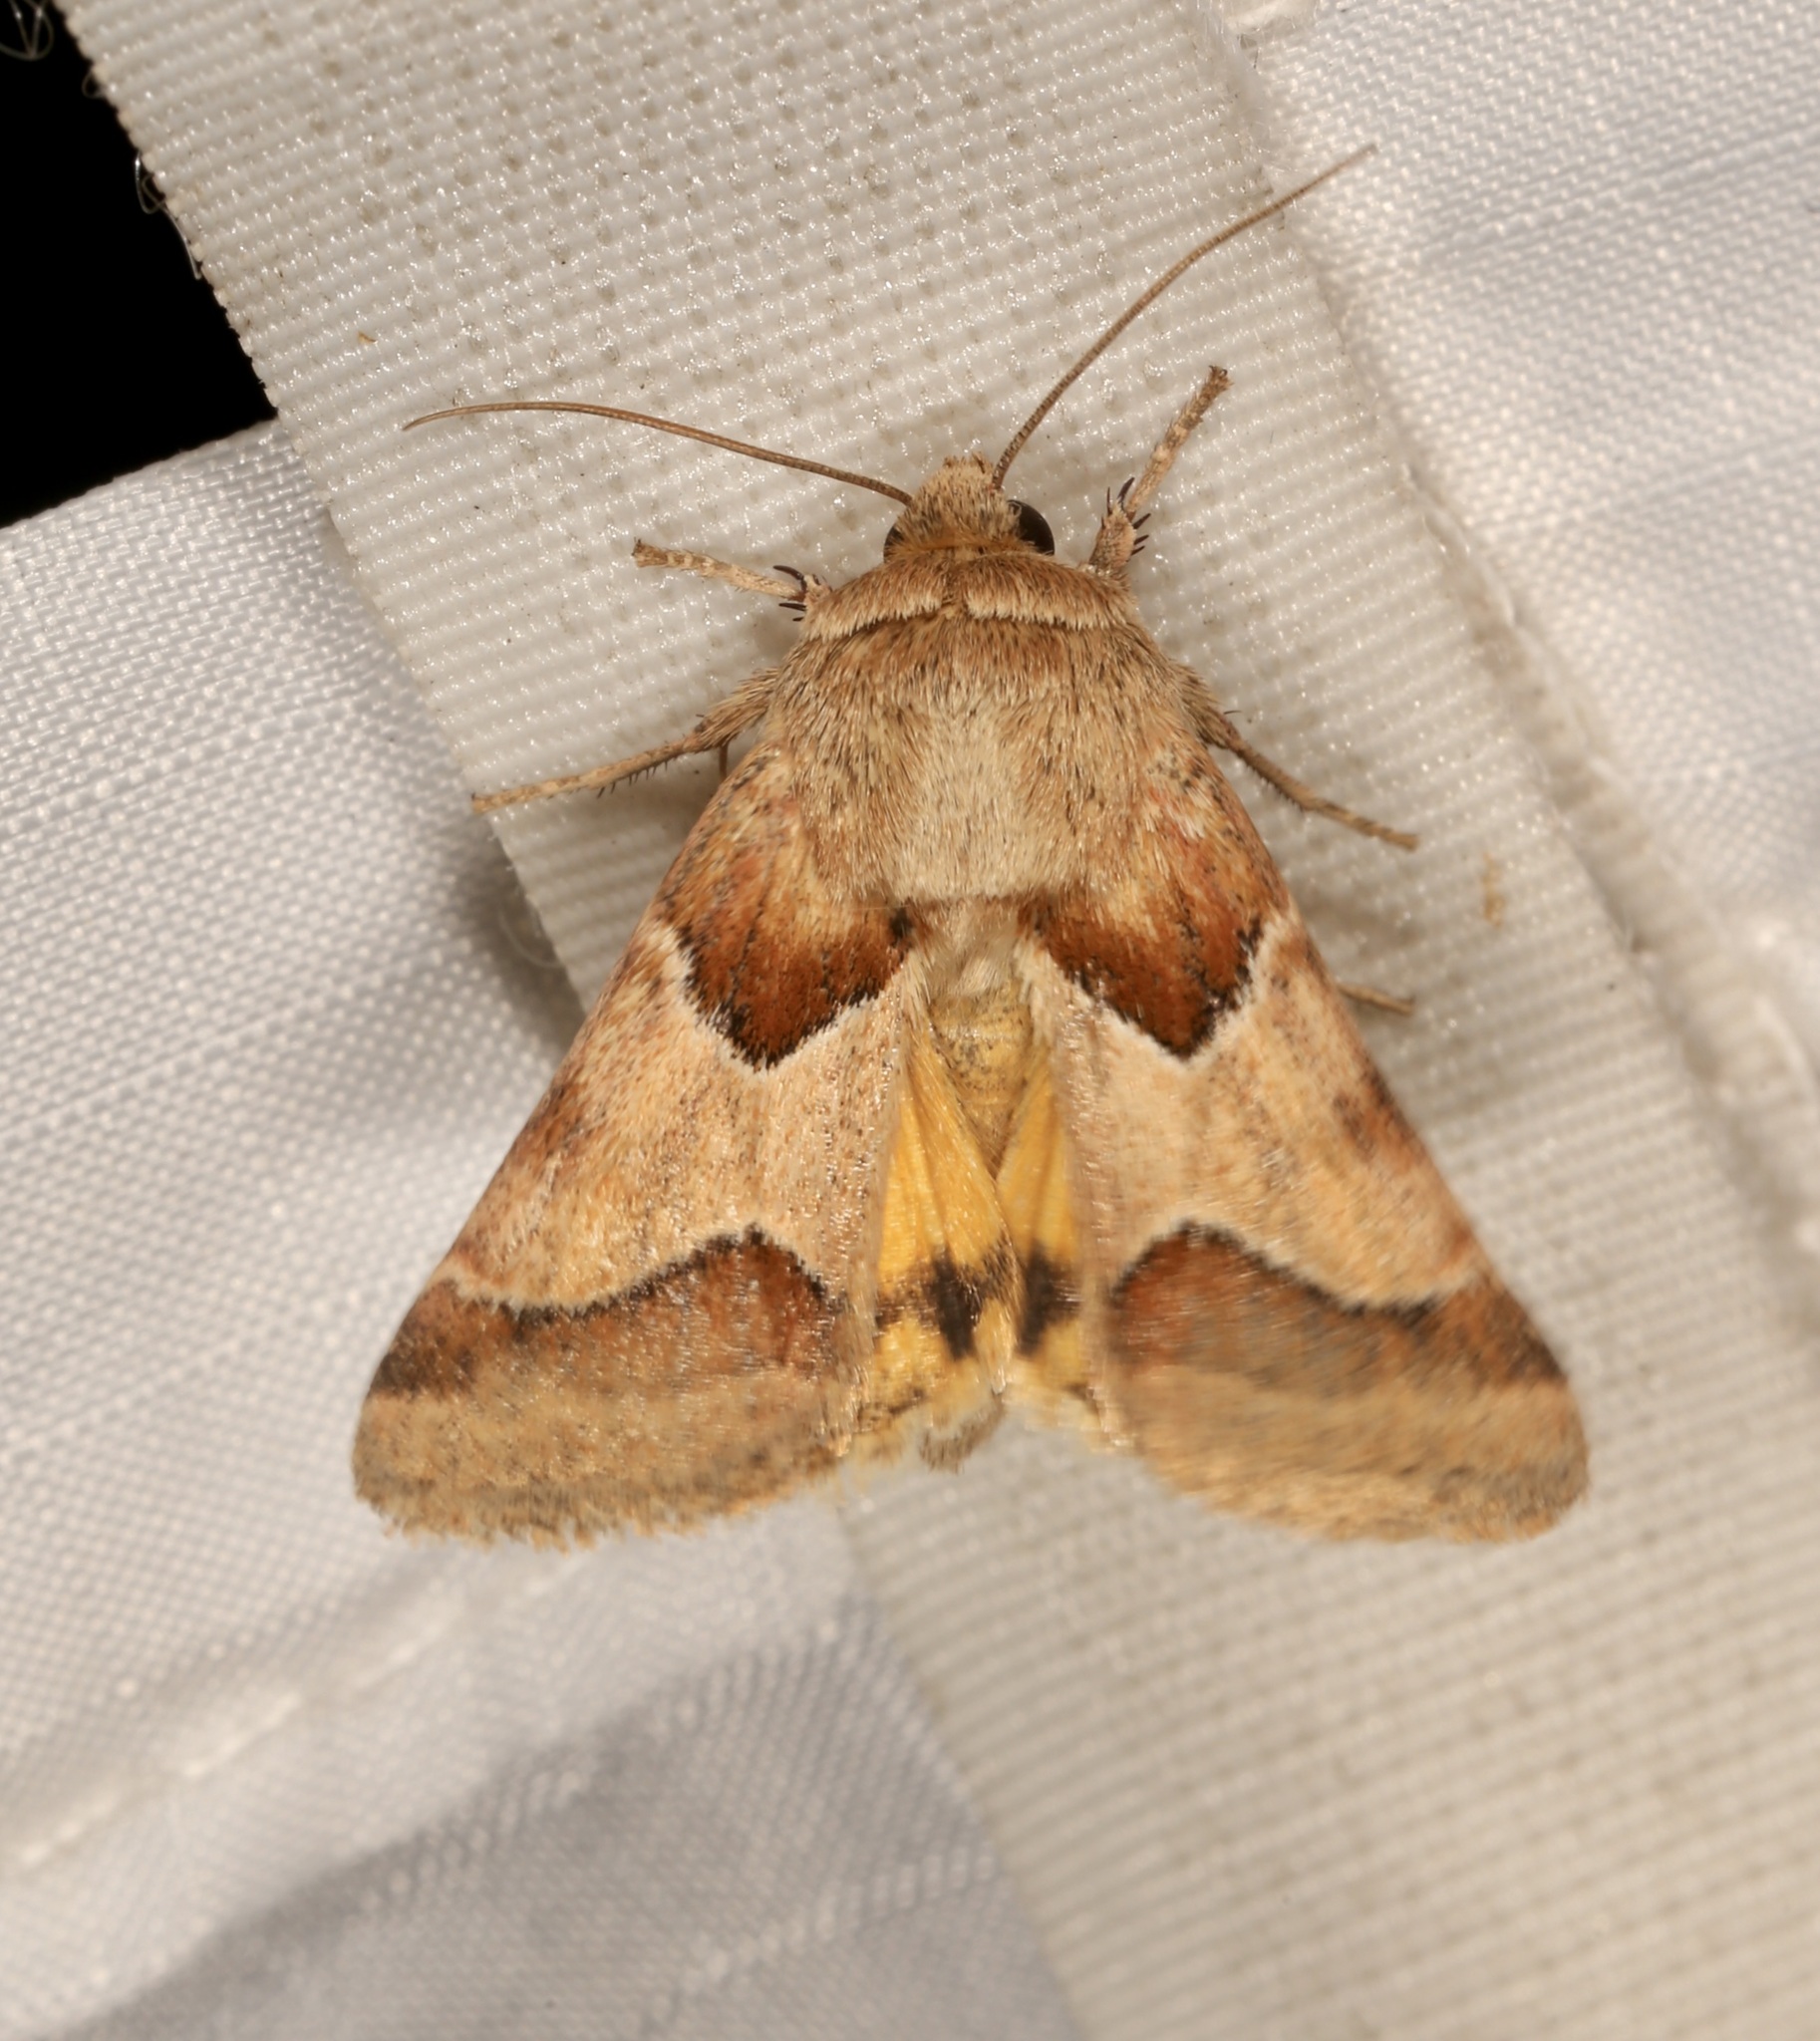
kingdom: Animalia
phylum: Arthropoda
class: Insecta
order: Lepidoptera
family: Noctuidae
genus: Schinia
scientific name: Schinia jaguarina
